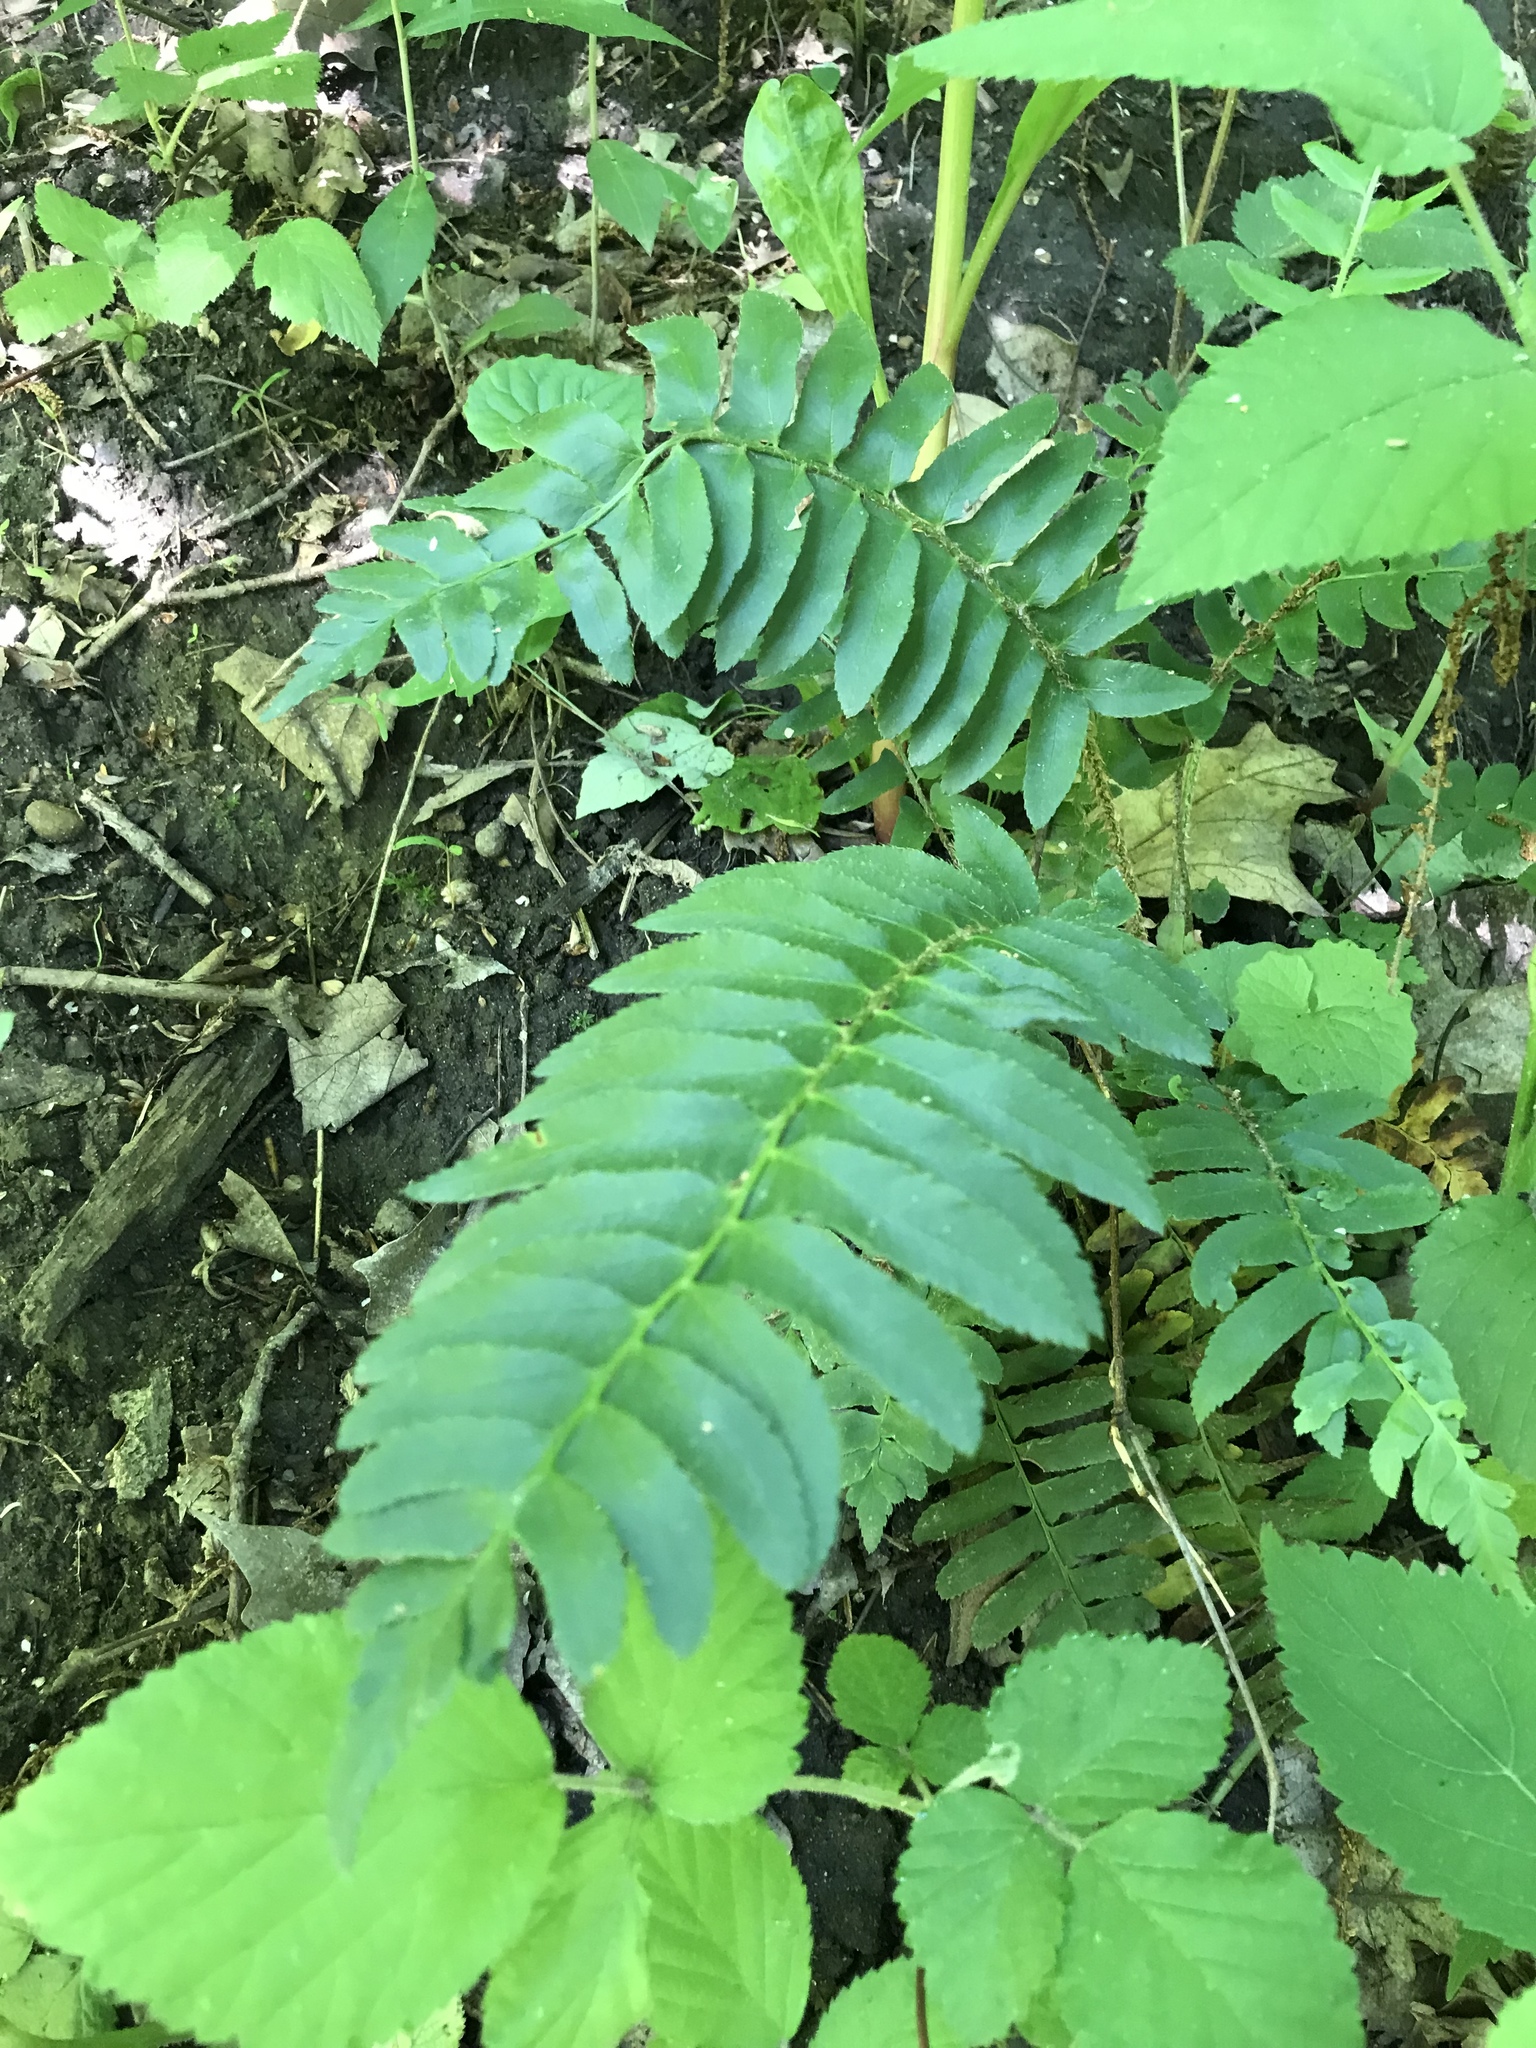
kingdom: Plantae
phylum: Tracheophyta
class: Polypodiopsida
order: Polypodiales
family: Dryopteridaceae
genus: Polystichum
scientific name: Polystichum acrostichoides
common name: Christmas fern
